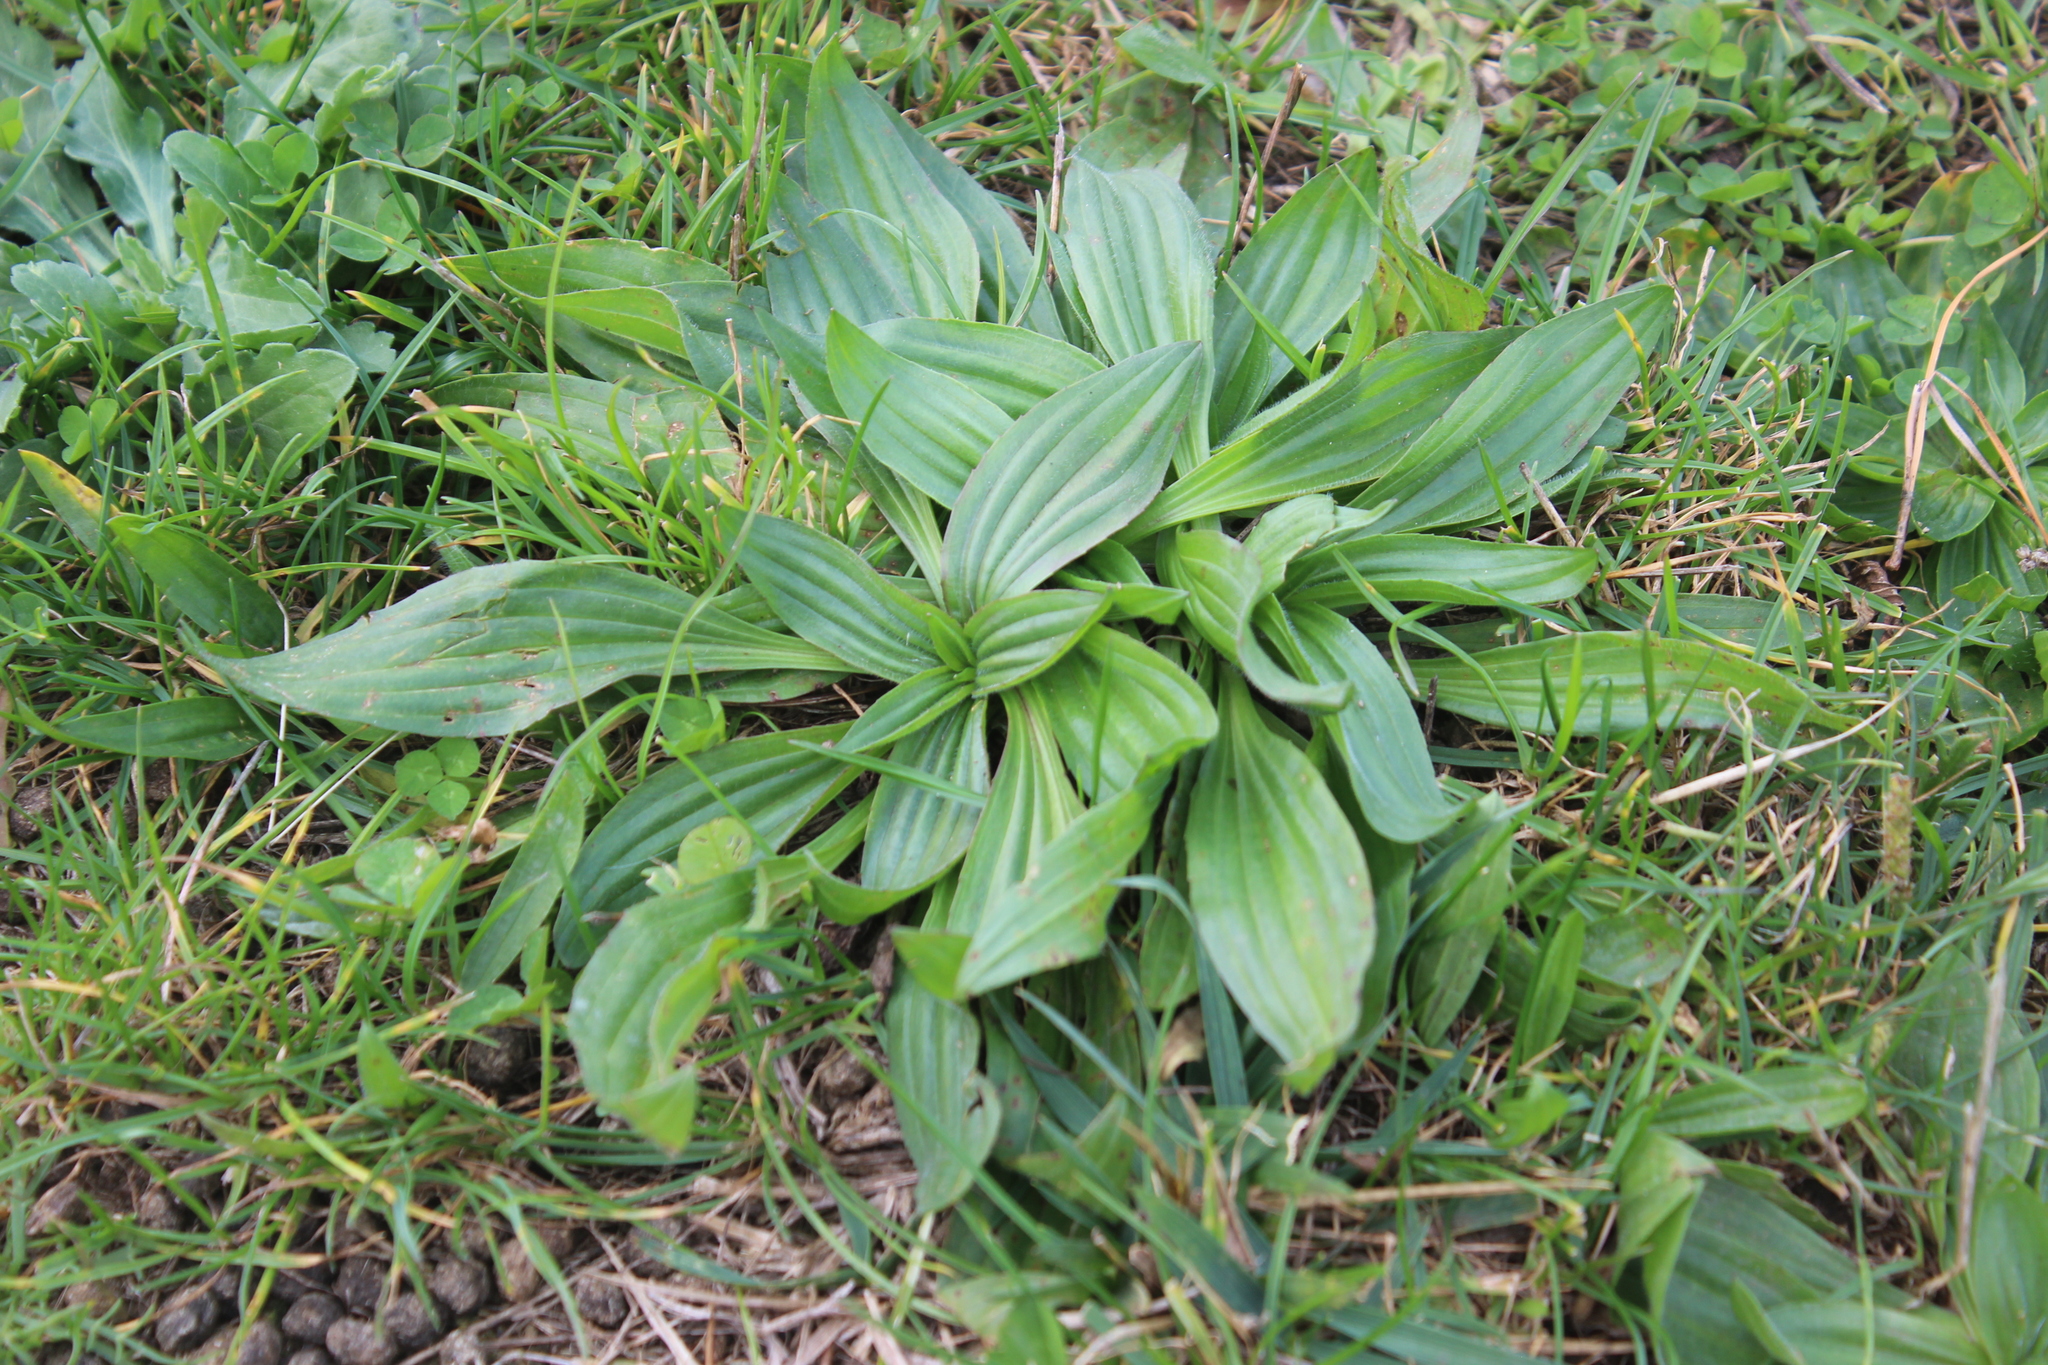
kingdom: Plantae
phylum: Tracheophyta
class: Magnoliopsida
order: Lamiales
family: Plantaginaceae
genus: Plantago
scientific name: Plantago lanceolata
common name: Ribwort plantain
